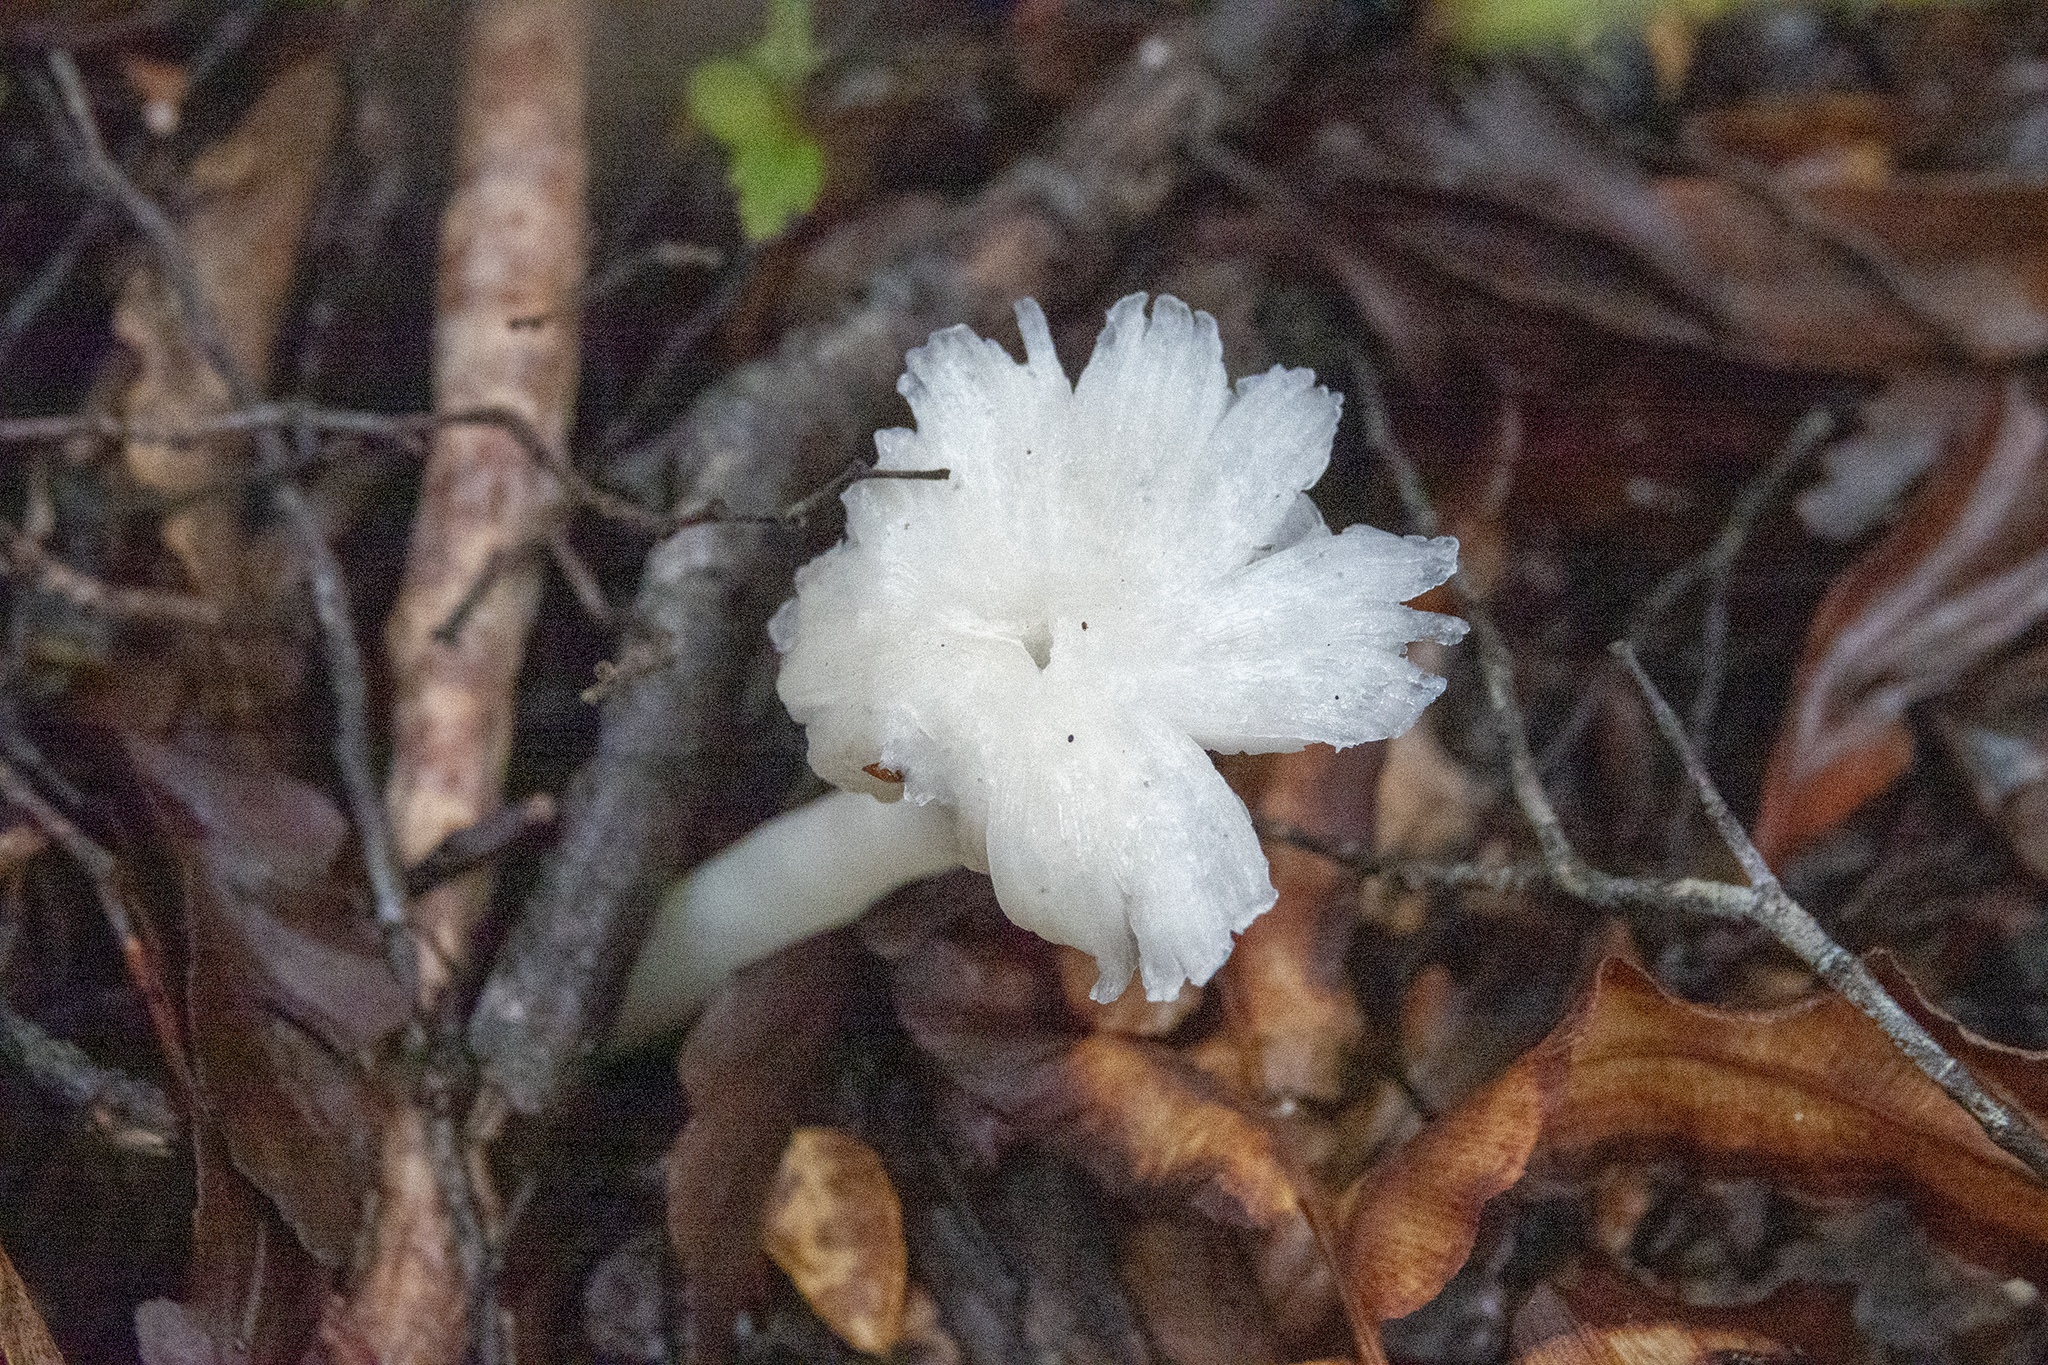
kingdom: Fungi
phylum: Basidiomycota
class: Agaricomycetes
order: Agaricales
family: Hygrophoraceae
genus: Humidicutis
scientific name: Humidicutis mavis
